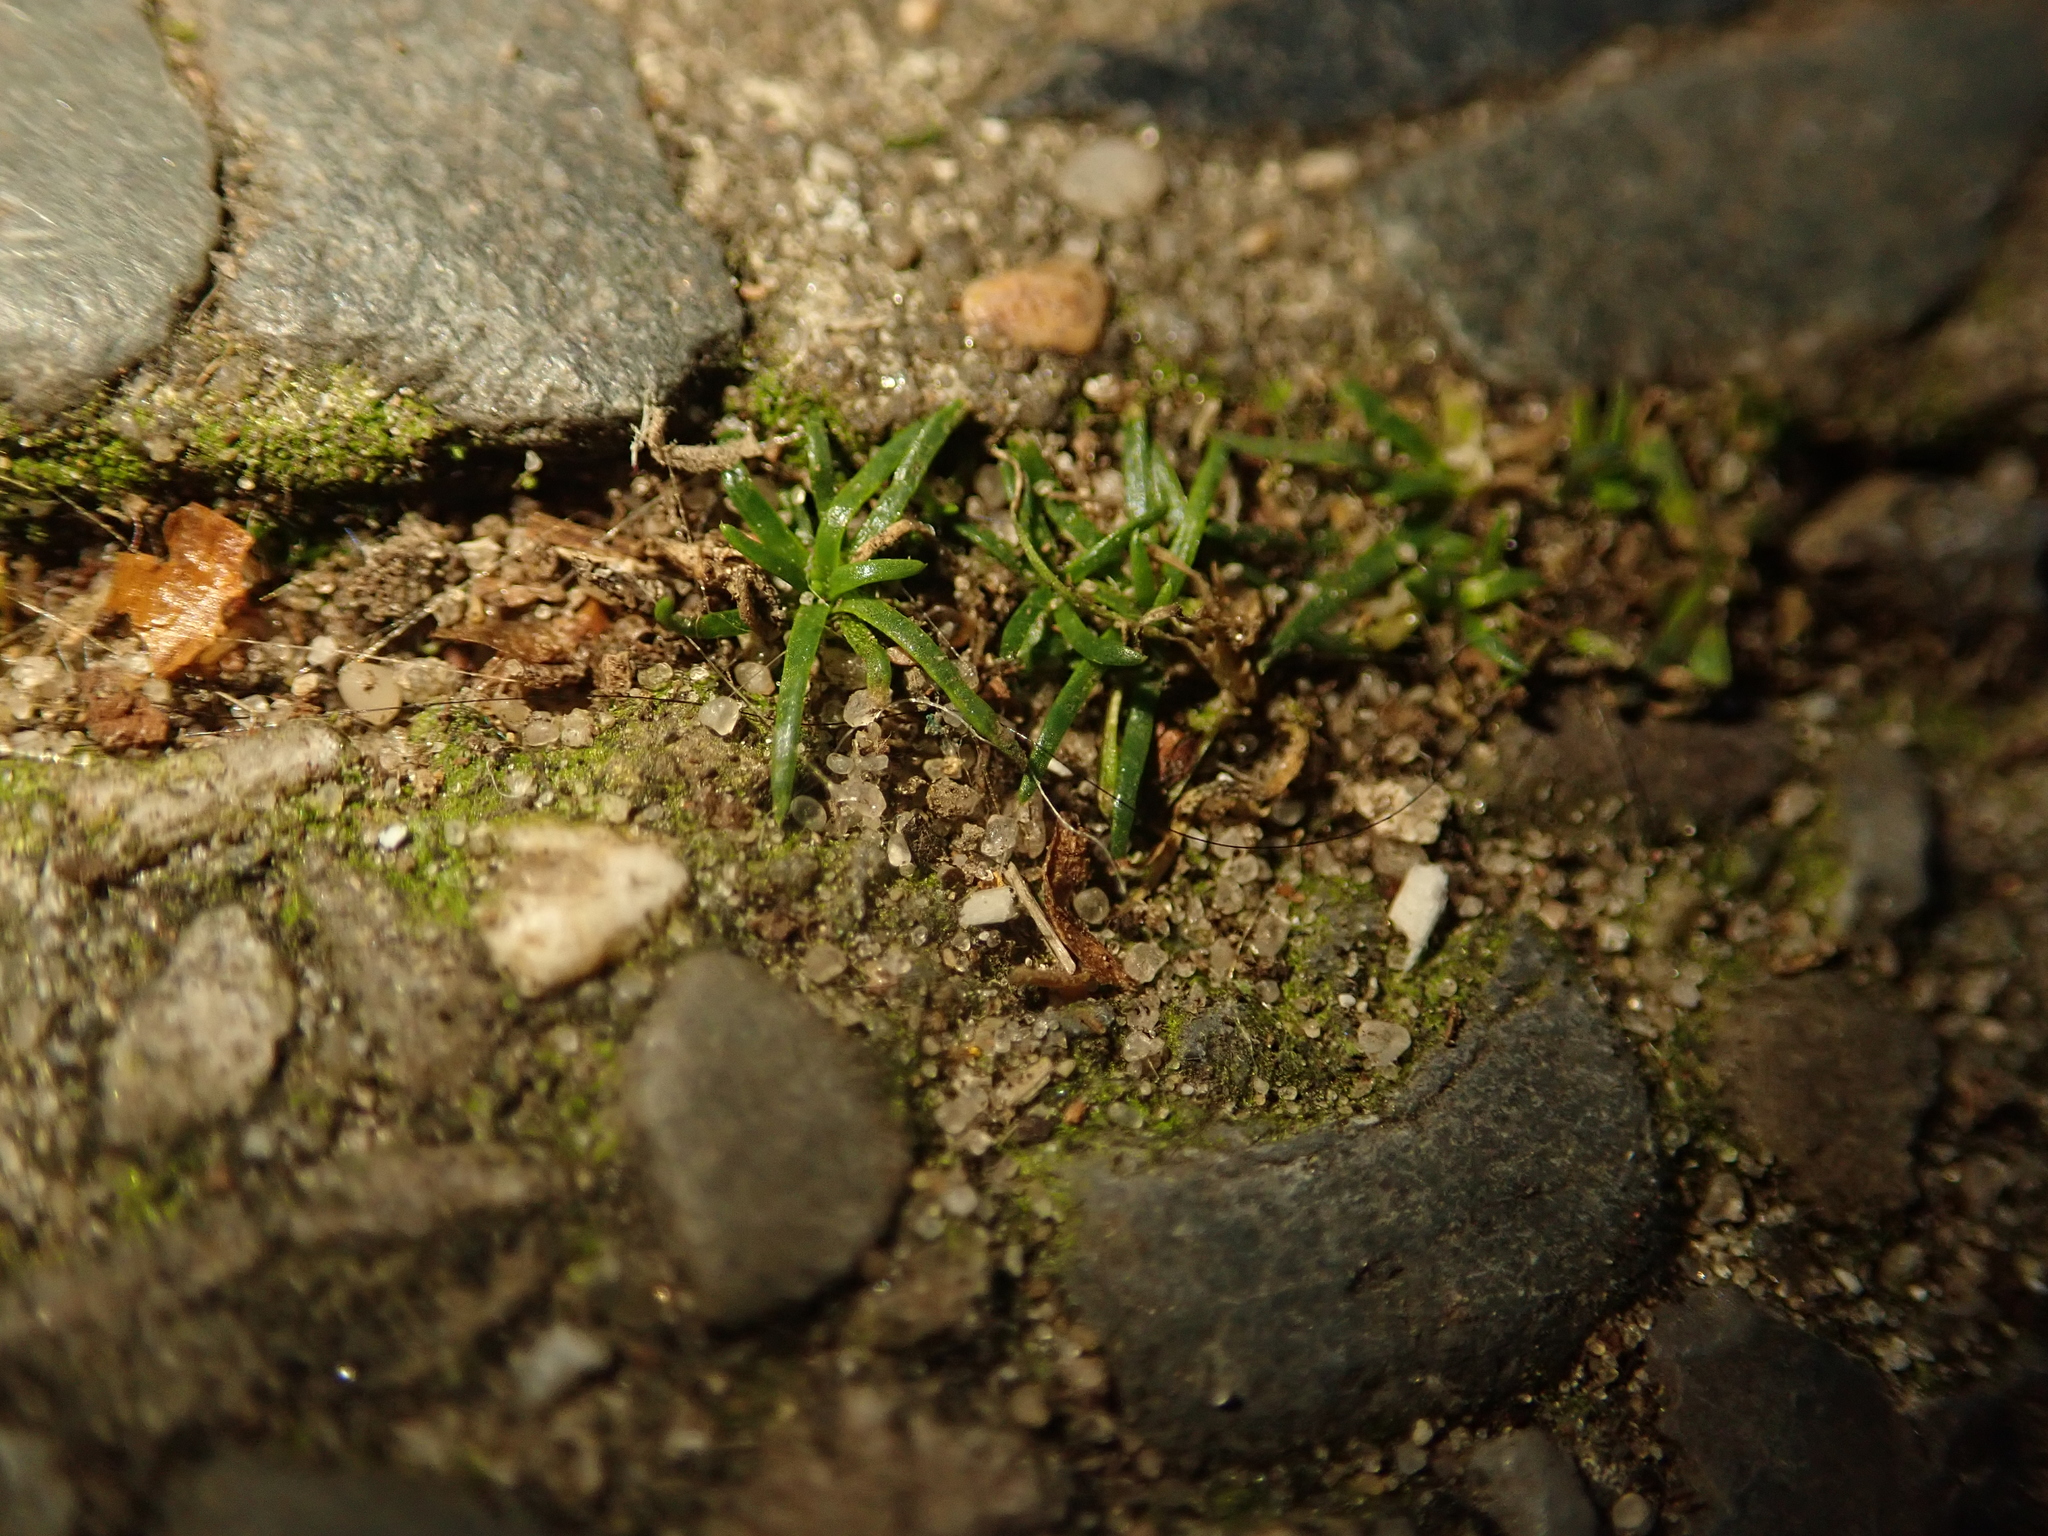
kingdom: Plantae
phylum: Tracheophyta
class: Magnoliopsida
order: Caryophyllales
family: Caryophyllaceae
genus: Sagina
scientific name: Sagina procumbens
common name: Procumbent pearlwort
